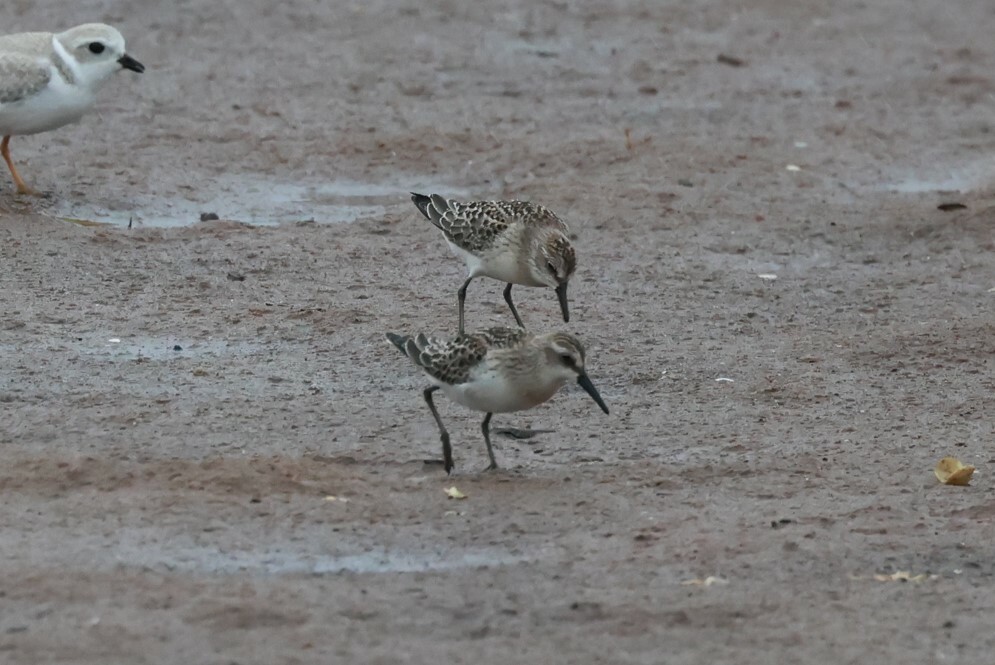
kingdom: Animalia
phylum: Chordata
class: Aves
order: Charadriiformes
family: Scolopacidae
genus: Calidris
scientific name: Calidris pusilla
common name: Semipalmated sandpiper
